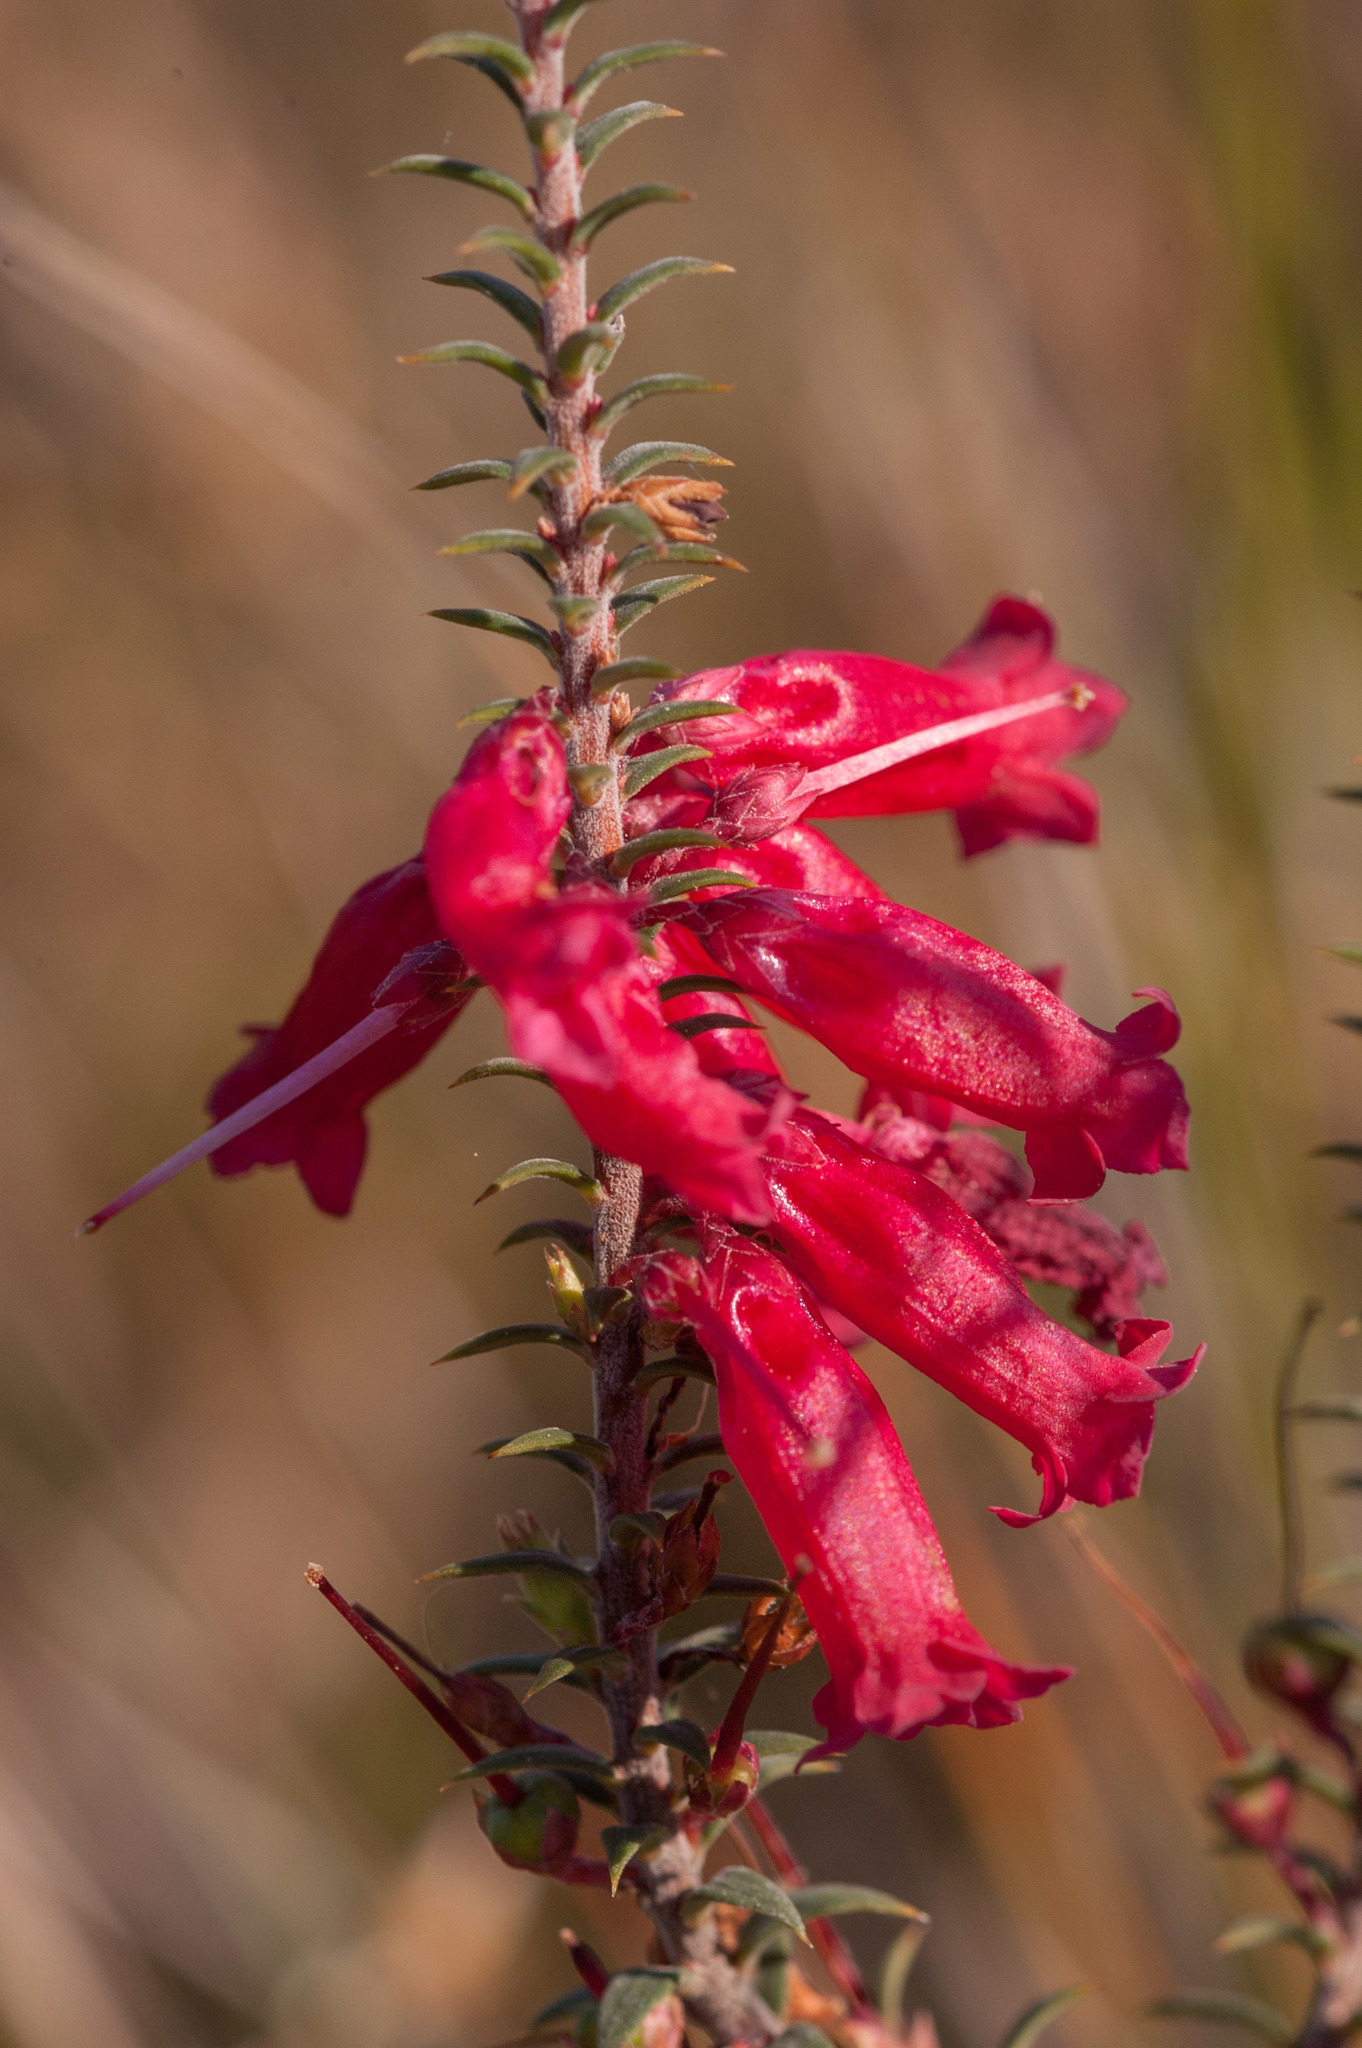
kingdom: Plantae
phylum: Tracheophyta
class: Magnoliopsida
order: Ericales
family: Ericaceae
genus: Epacris
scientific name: Epacris impressa
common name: Common-heath
